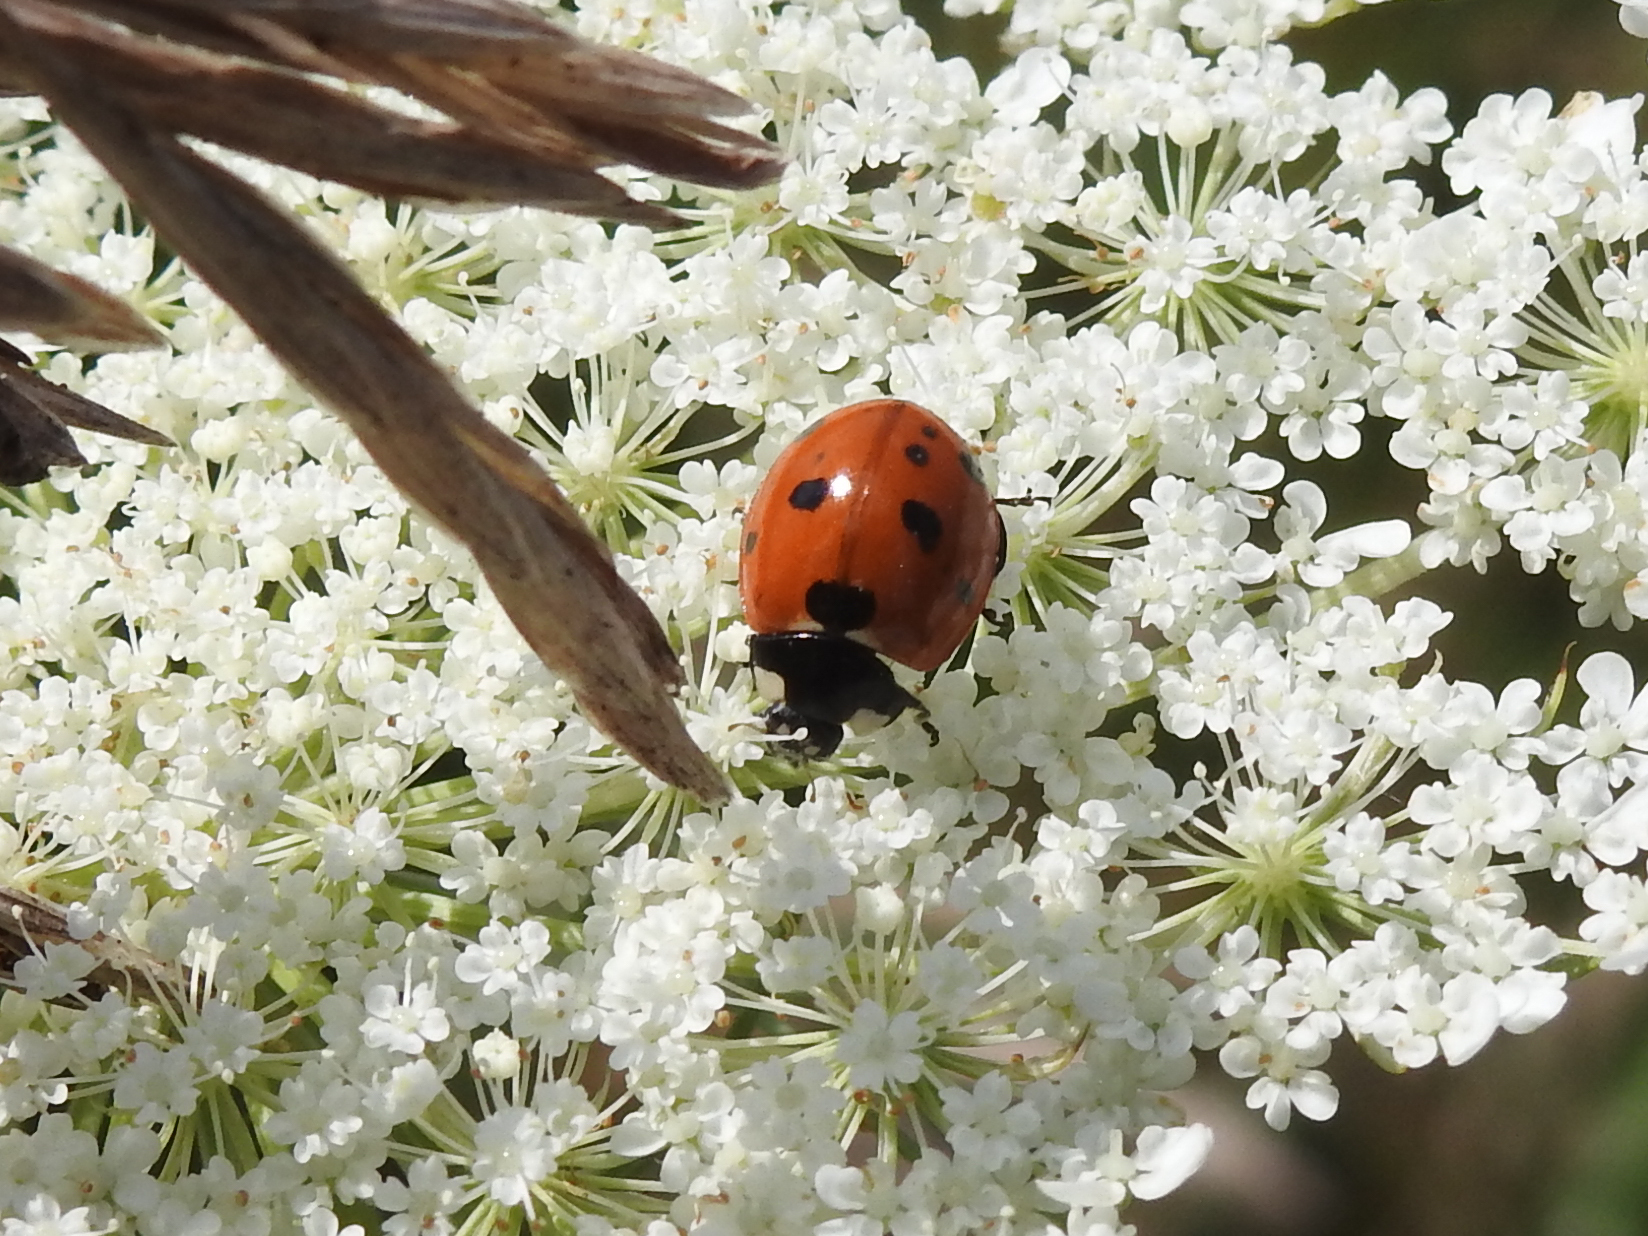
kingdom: Animalia
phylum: Arthropoda
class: Insecta
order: Coleoptera
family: Coccinellidae
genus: Coccinella
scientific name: Coccinella septempunctata
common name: Sevenspotted lady beetle
